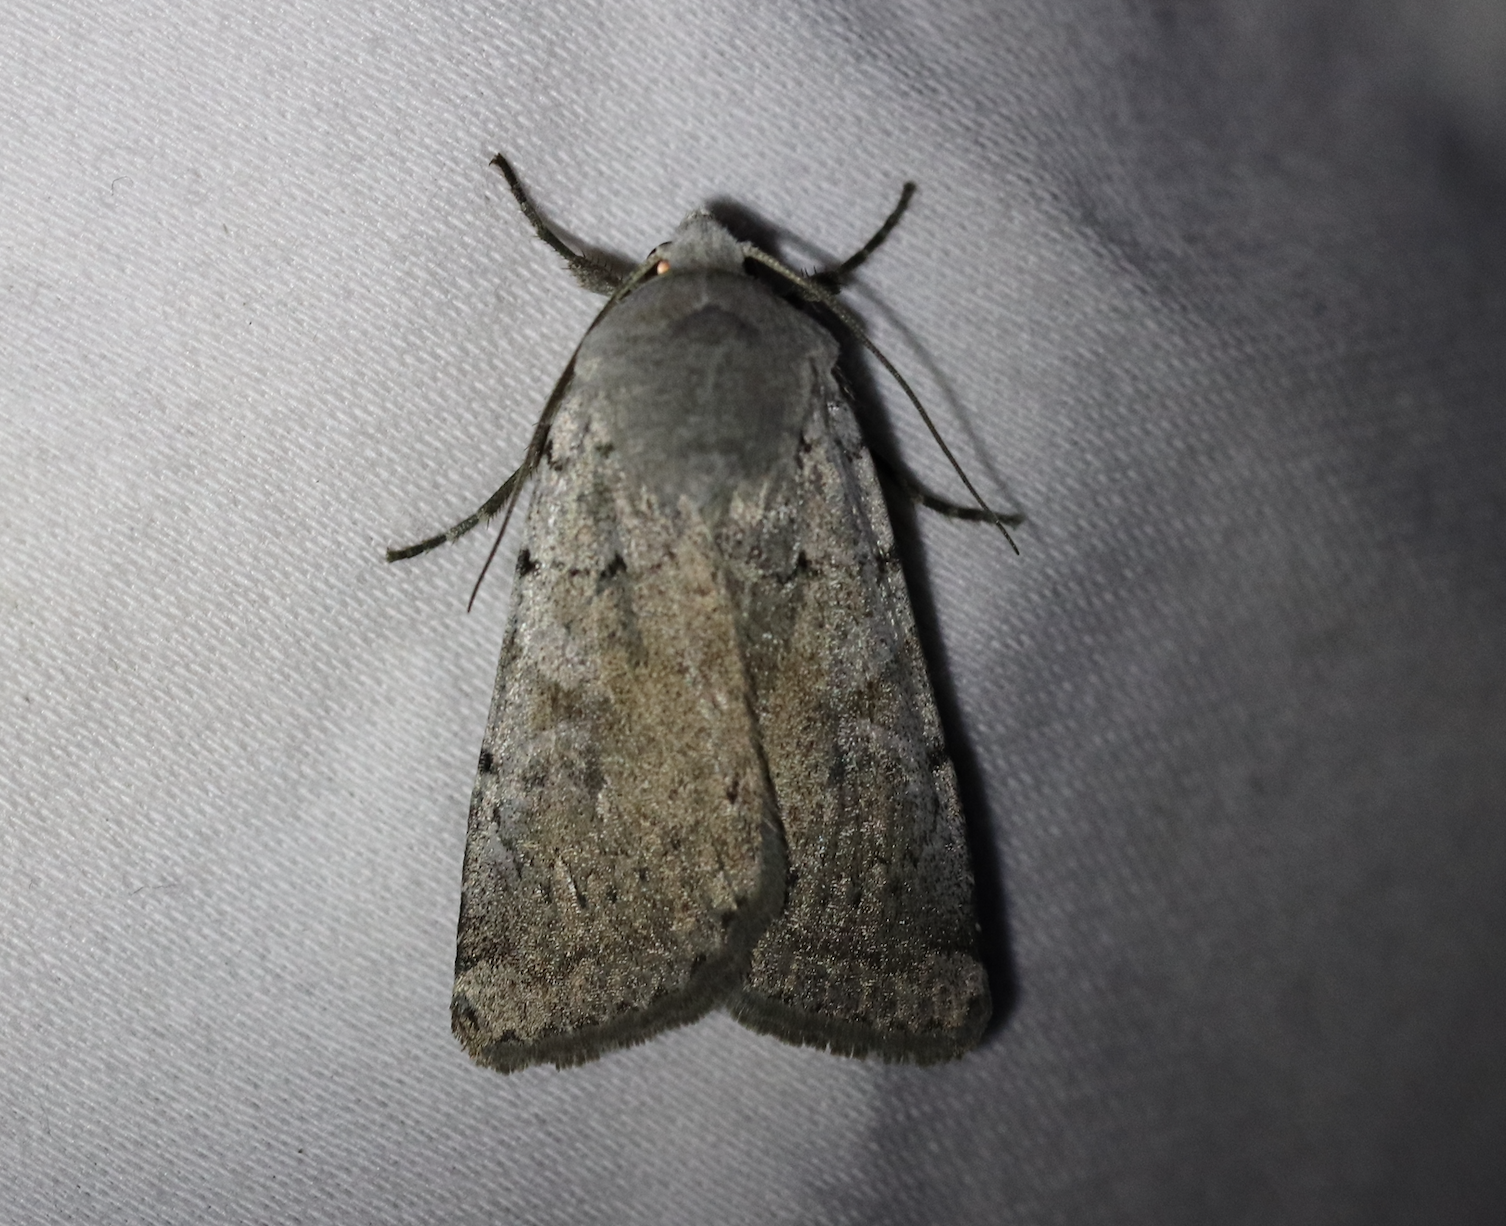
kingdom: Animalia
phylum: Arthropoda
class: Insecta
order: Lepidoptera
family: Noctuidae
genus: Xestia
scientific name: Xestia ashworthii
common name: Ashworth's rustic
